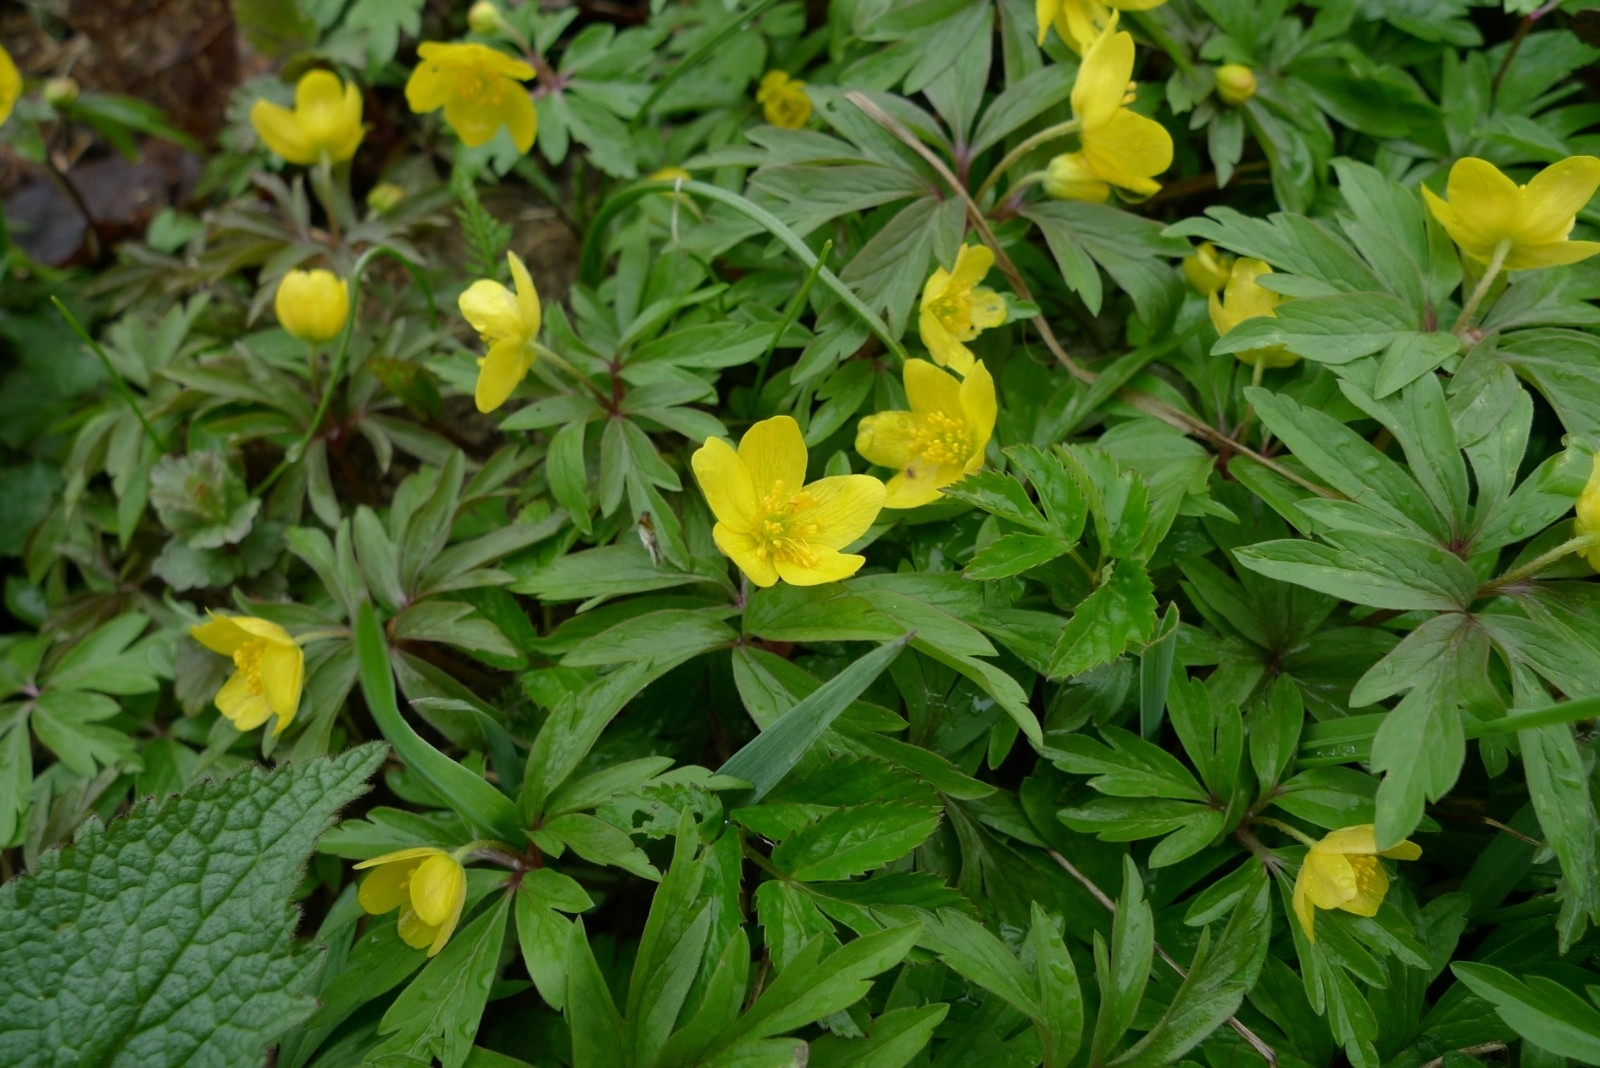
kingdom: Plantae
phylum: Tracheophyta
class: Magnoliopsida
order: Ranunculales
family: Ranunculaceae
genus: Anemone
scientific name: Anemone ranunculoides
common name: Yellow anemone
